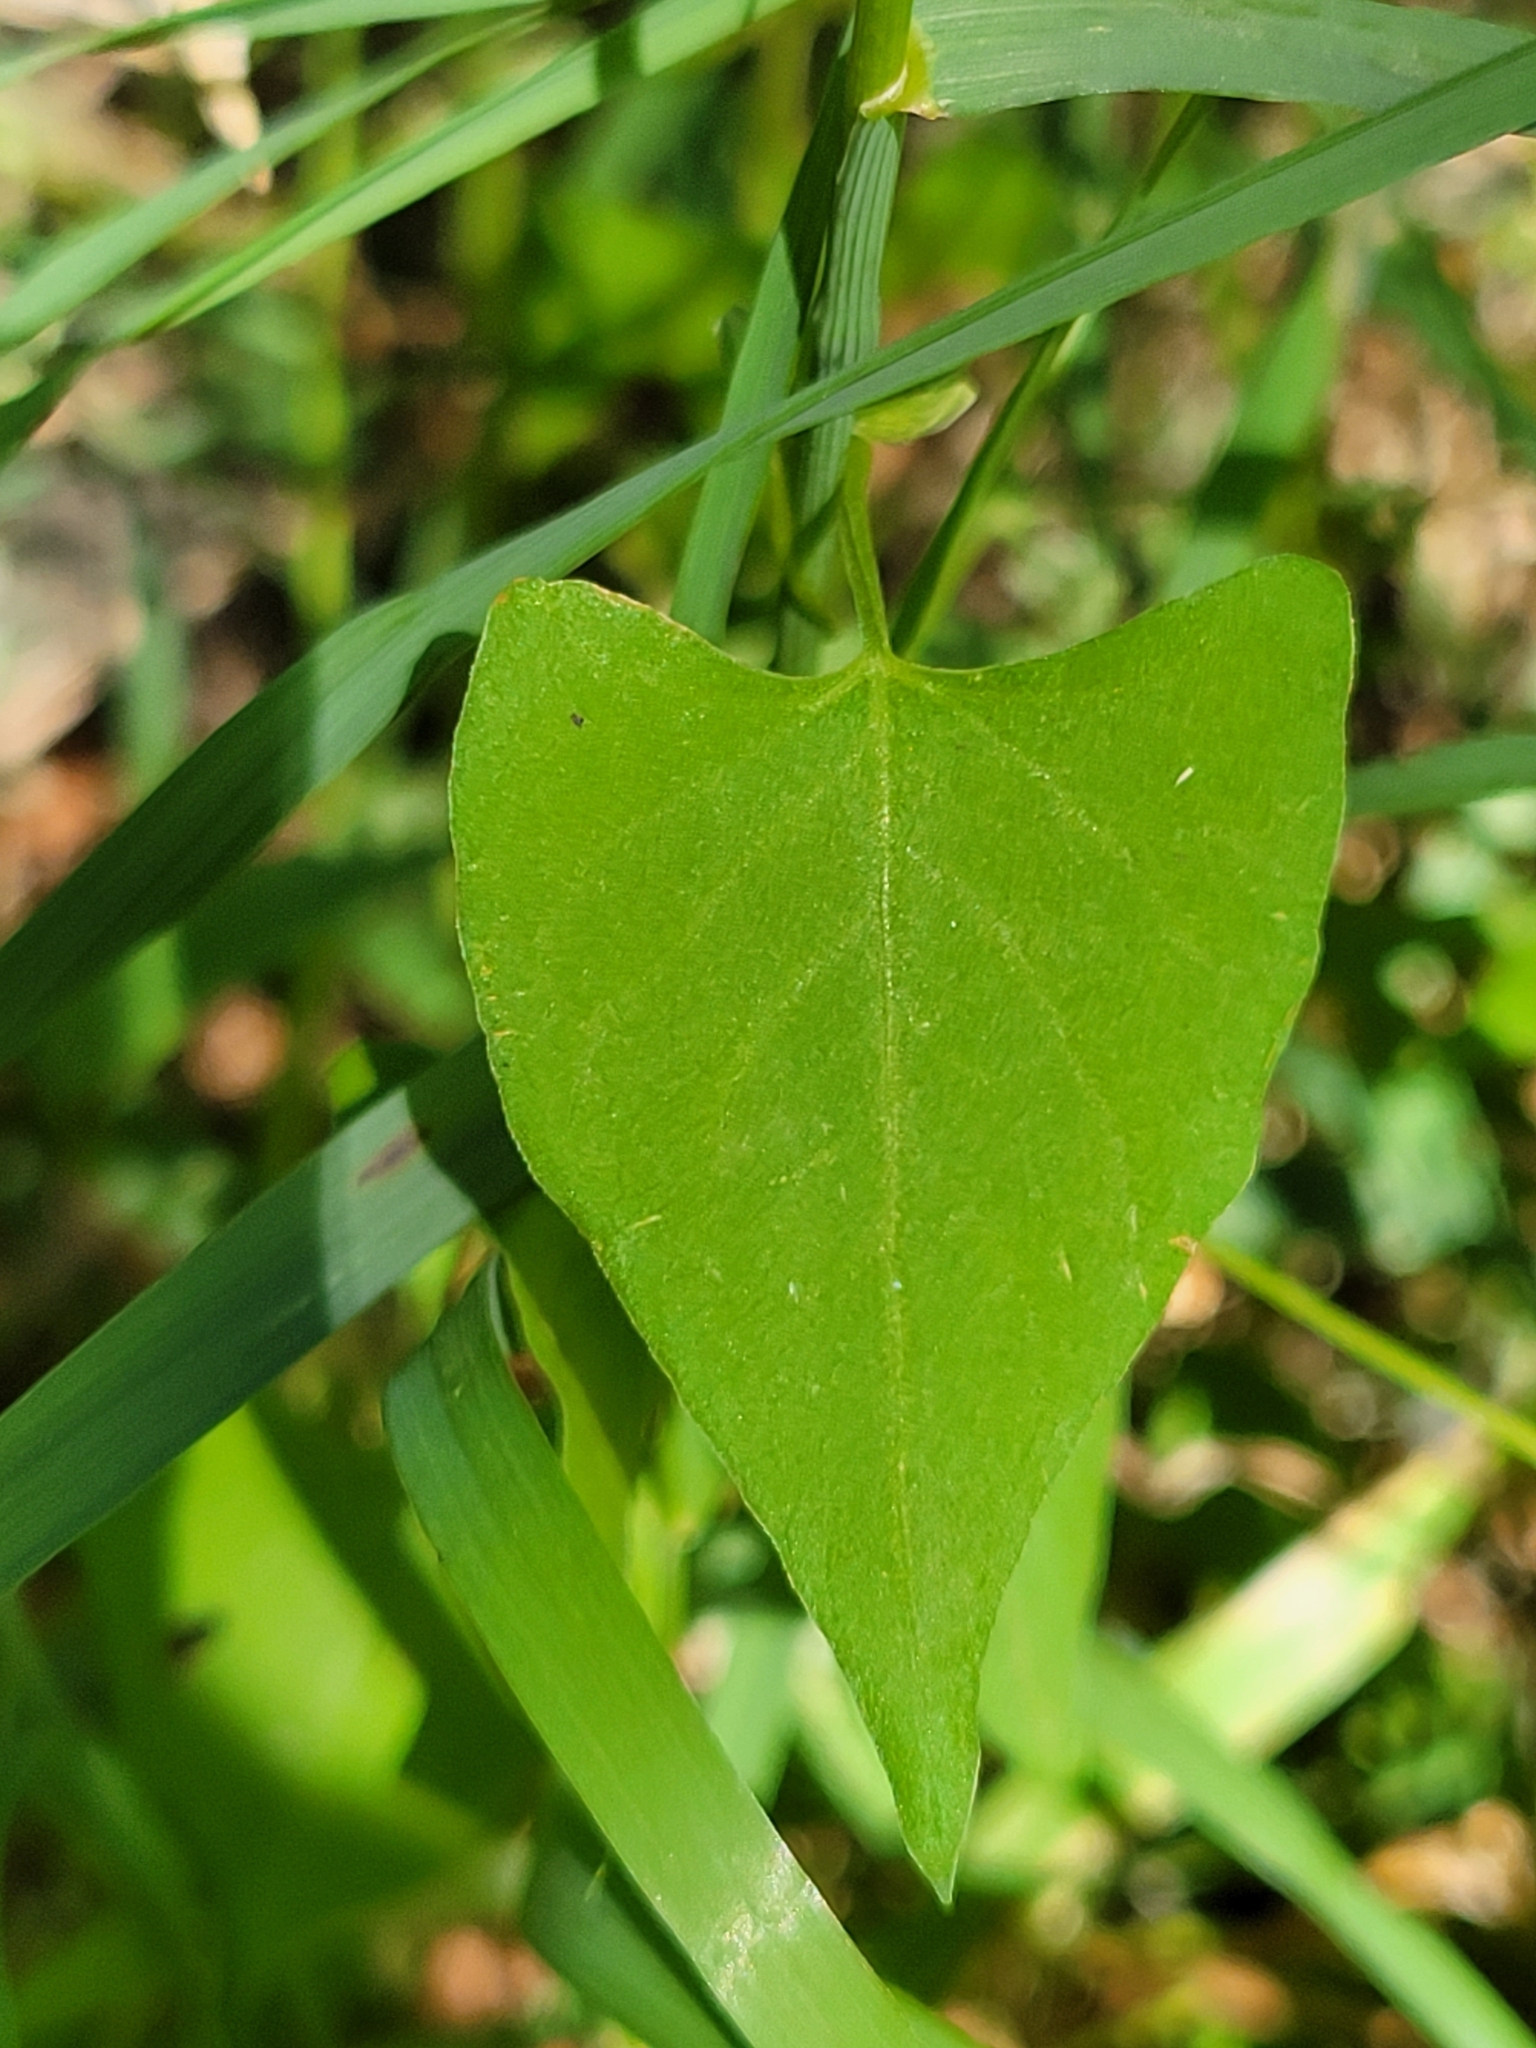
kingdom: Plantae
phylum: Tracheophyta
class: Magnoliopsida
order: Caryophyllales
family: Polygonaceae
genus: Fallopia
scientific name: Fallopia convolvulus
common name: Black bindweed
